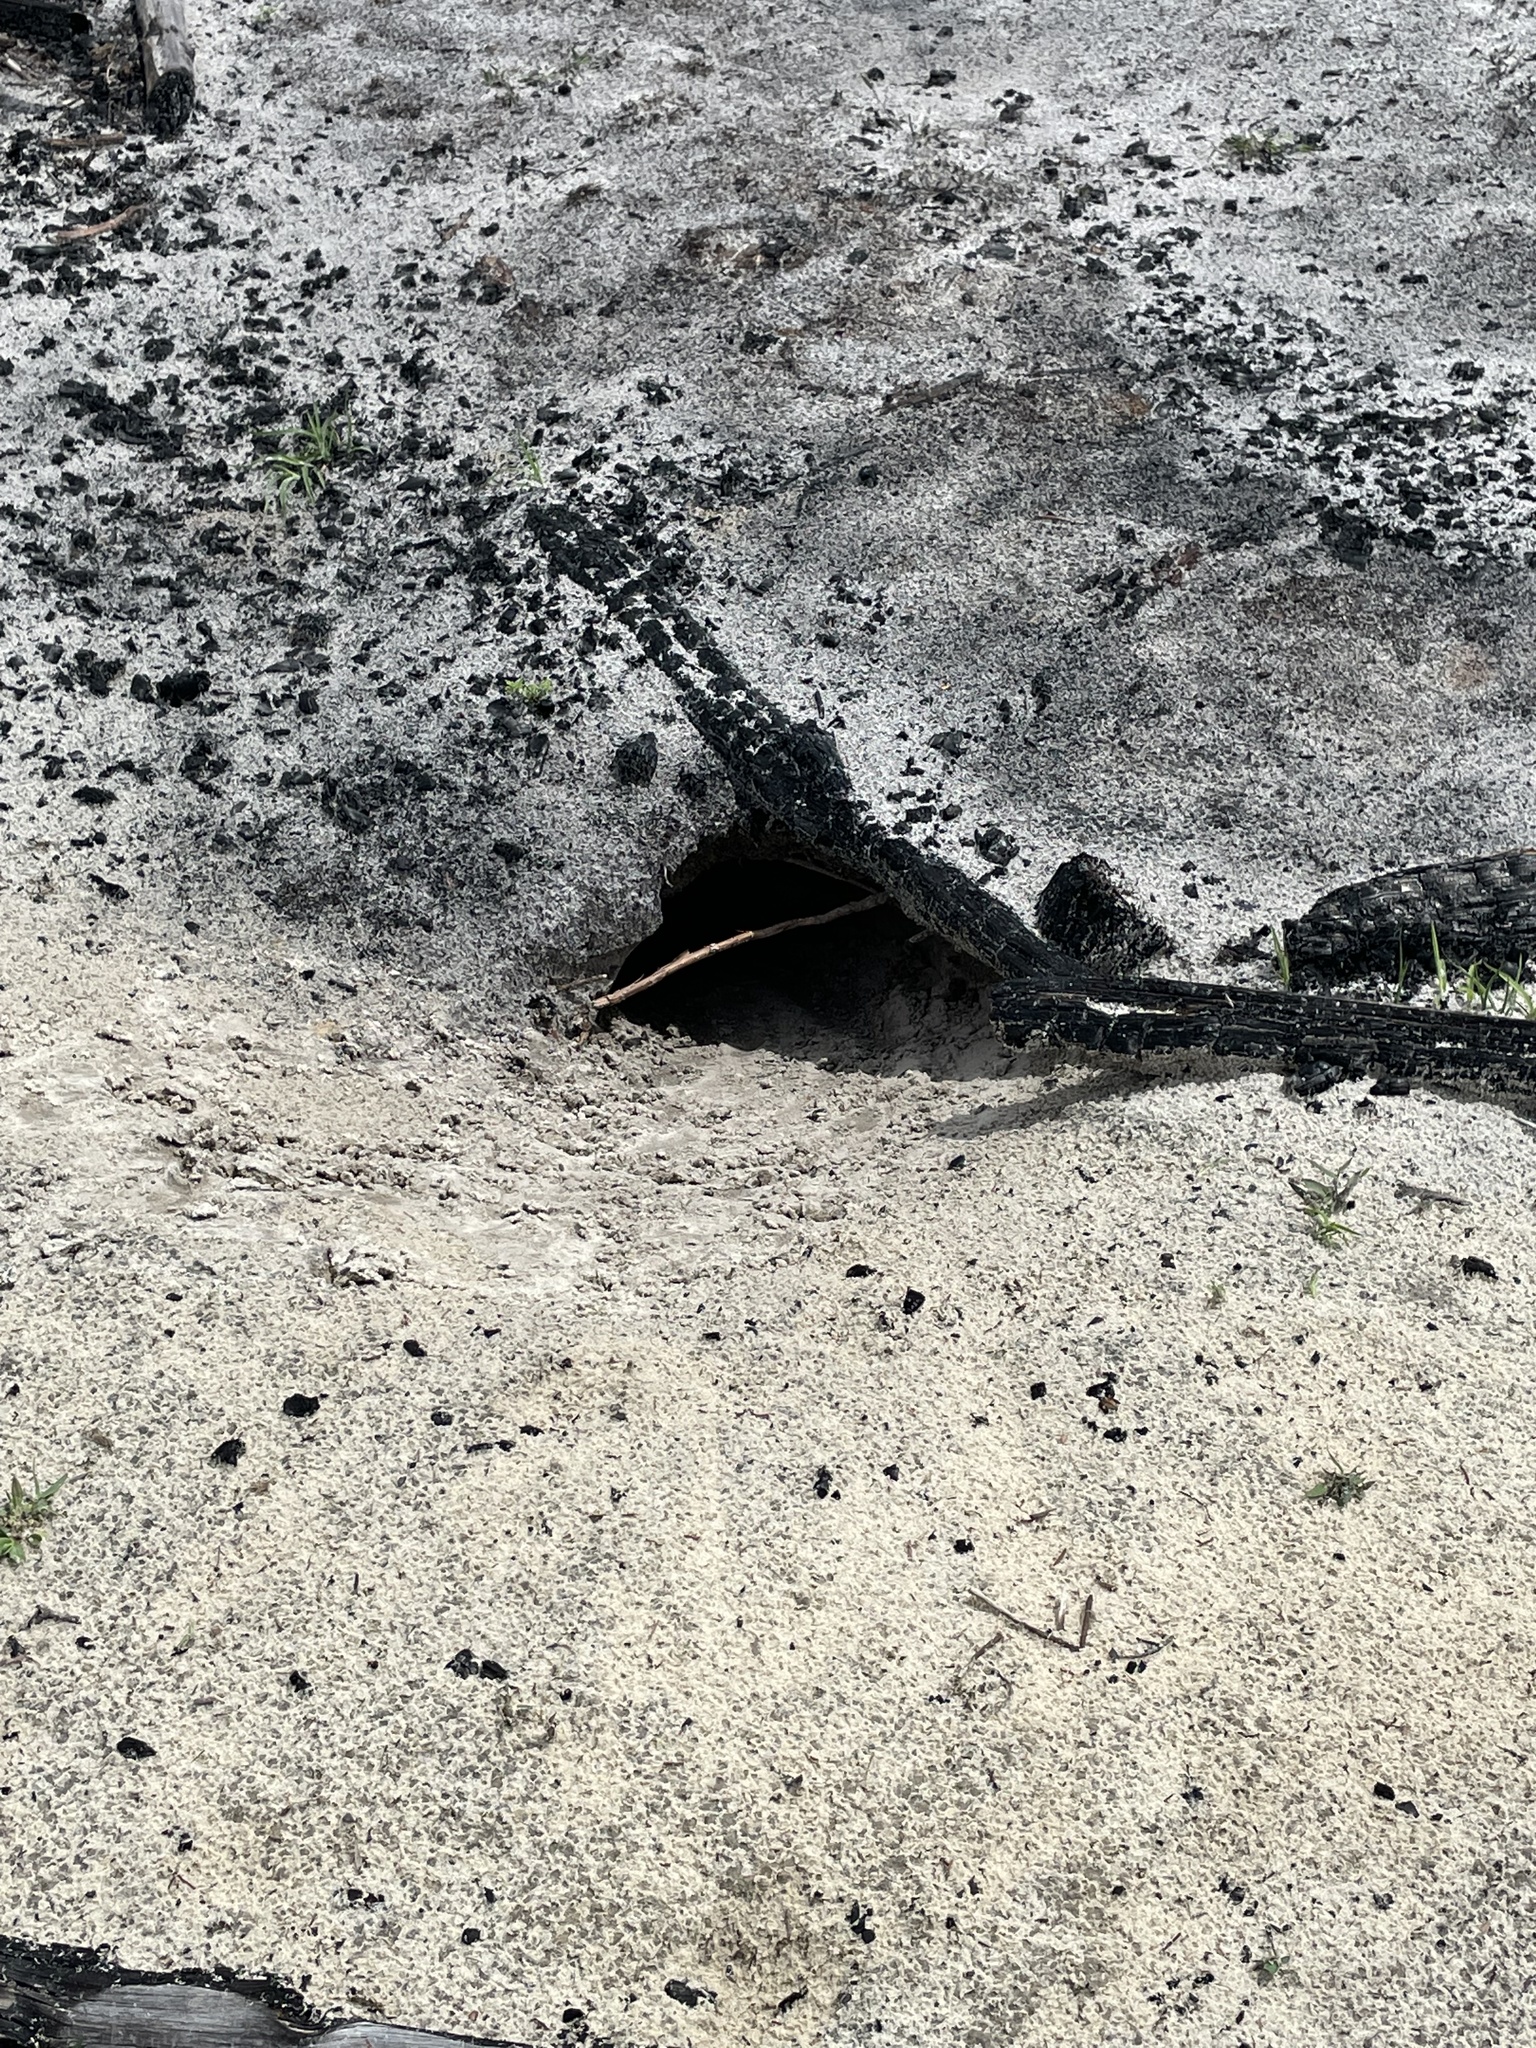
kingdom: Animalia
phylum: Chordata
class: Testudines
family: Testudinidae
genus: Gopherus
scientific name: Gopherus polyphemus
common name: Florida gopher tortoise
